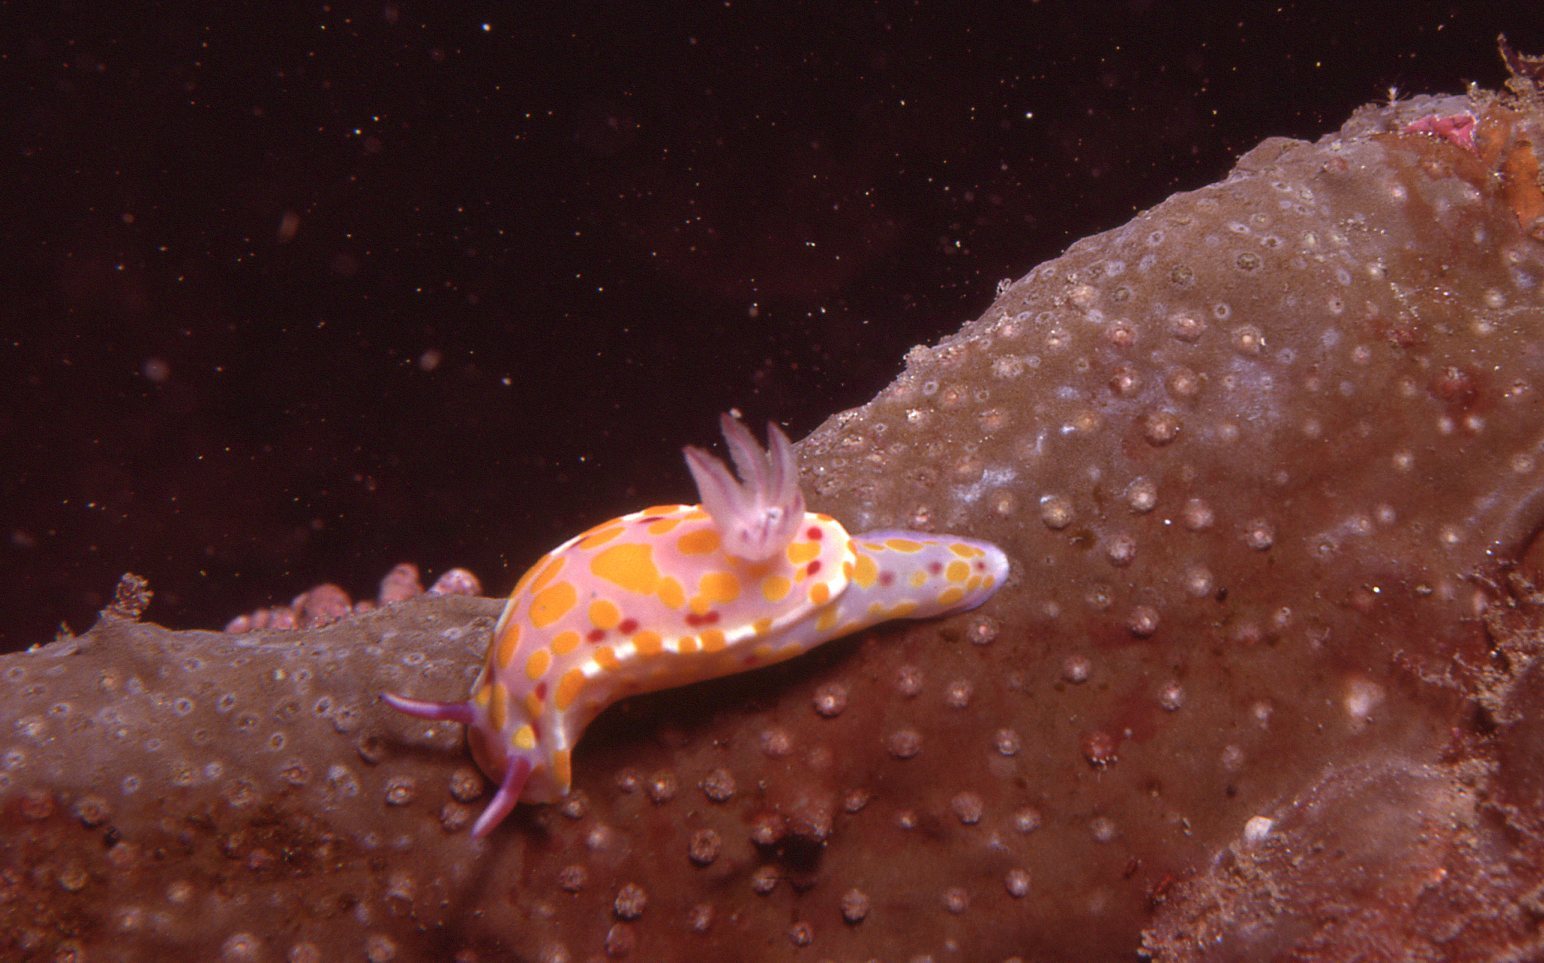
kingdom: Animalia
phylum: Mollusca
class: Gastropoda
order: Nudibranchia
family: Chromodorididae
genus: Ceratosoma
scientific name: Ceratosoma amoenum
